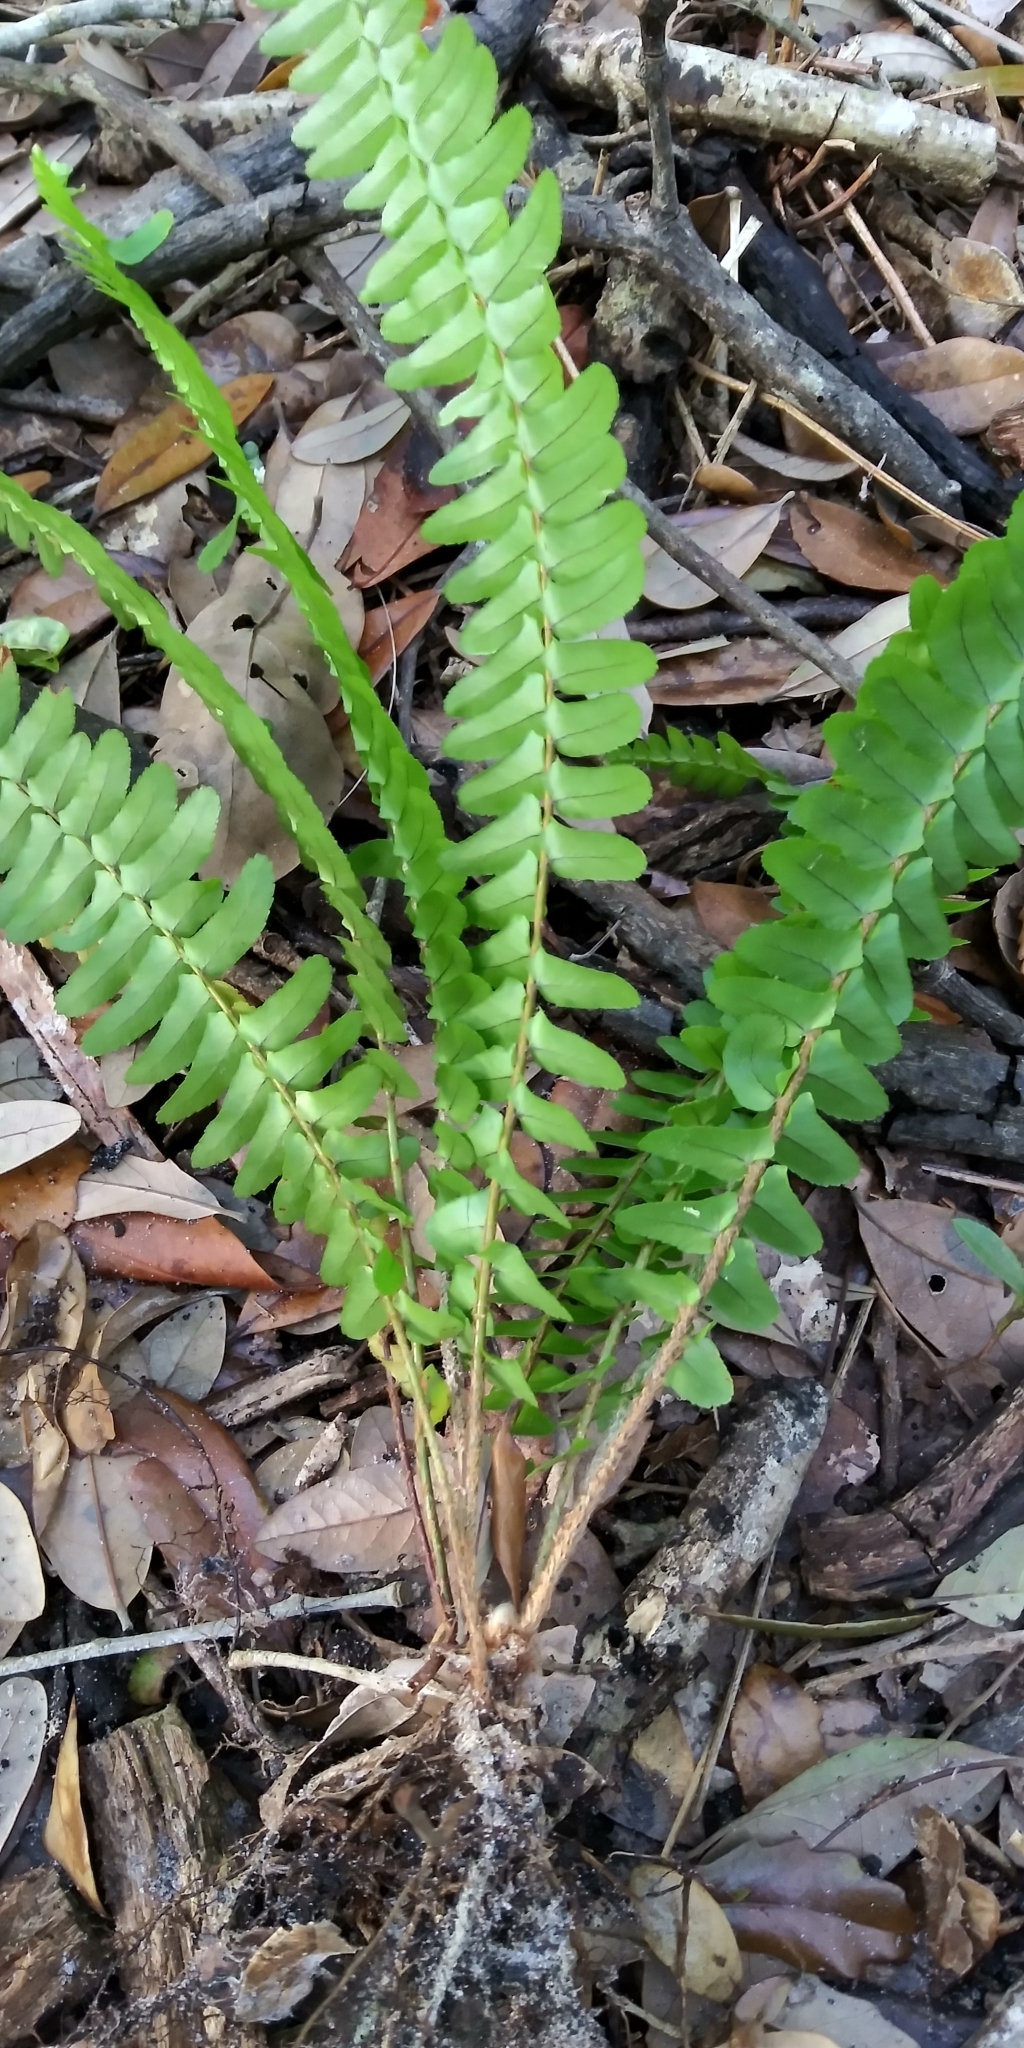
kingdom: Plantae
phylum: Tracheophyta
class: Polypodiopsida
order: Polypodiales
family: Nephrolepidaceae
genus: Nephrolepis
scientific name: Nephrolepis cordifolia
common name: Narrow swordfern
